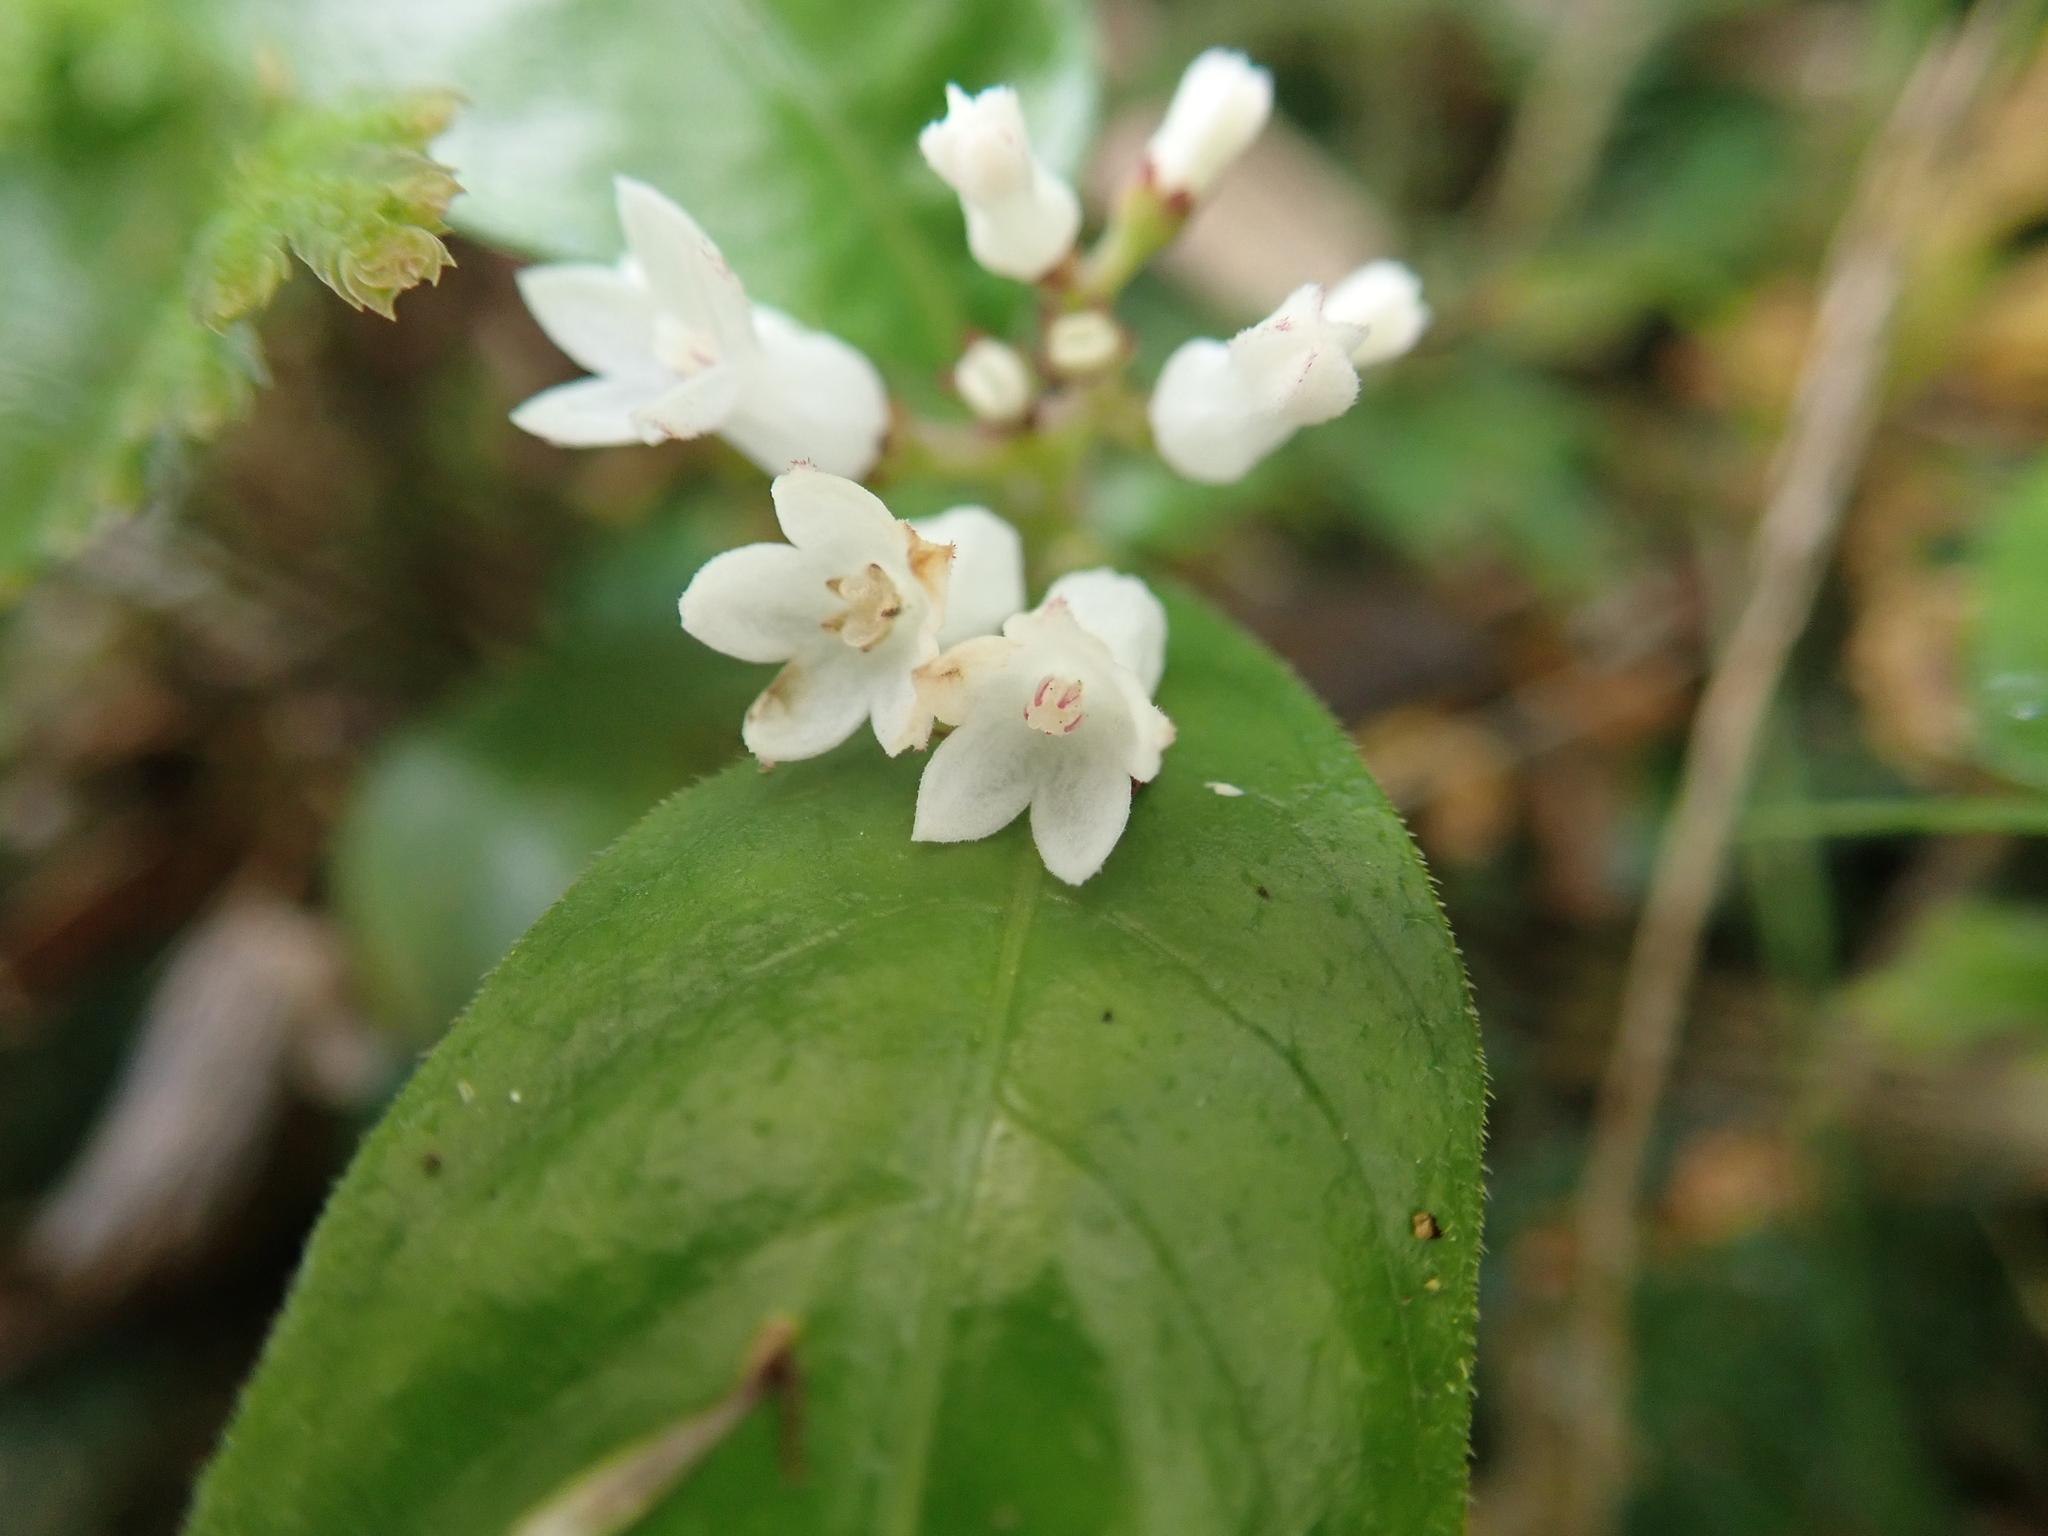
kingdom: Plantae
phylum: Tracheophyta
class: Magnoliopsida
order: Gentianales
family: Rubiaceae
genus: Ophiorrhiza
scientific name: Ophiorrhiza pumila
